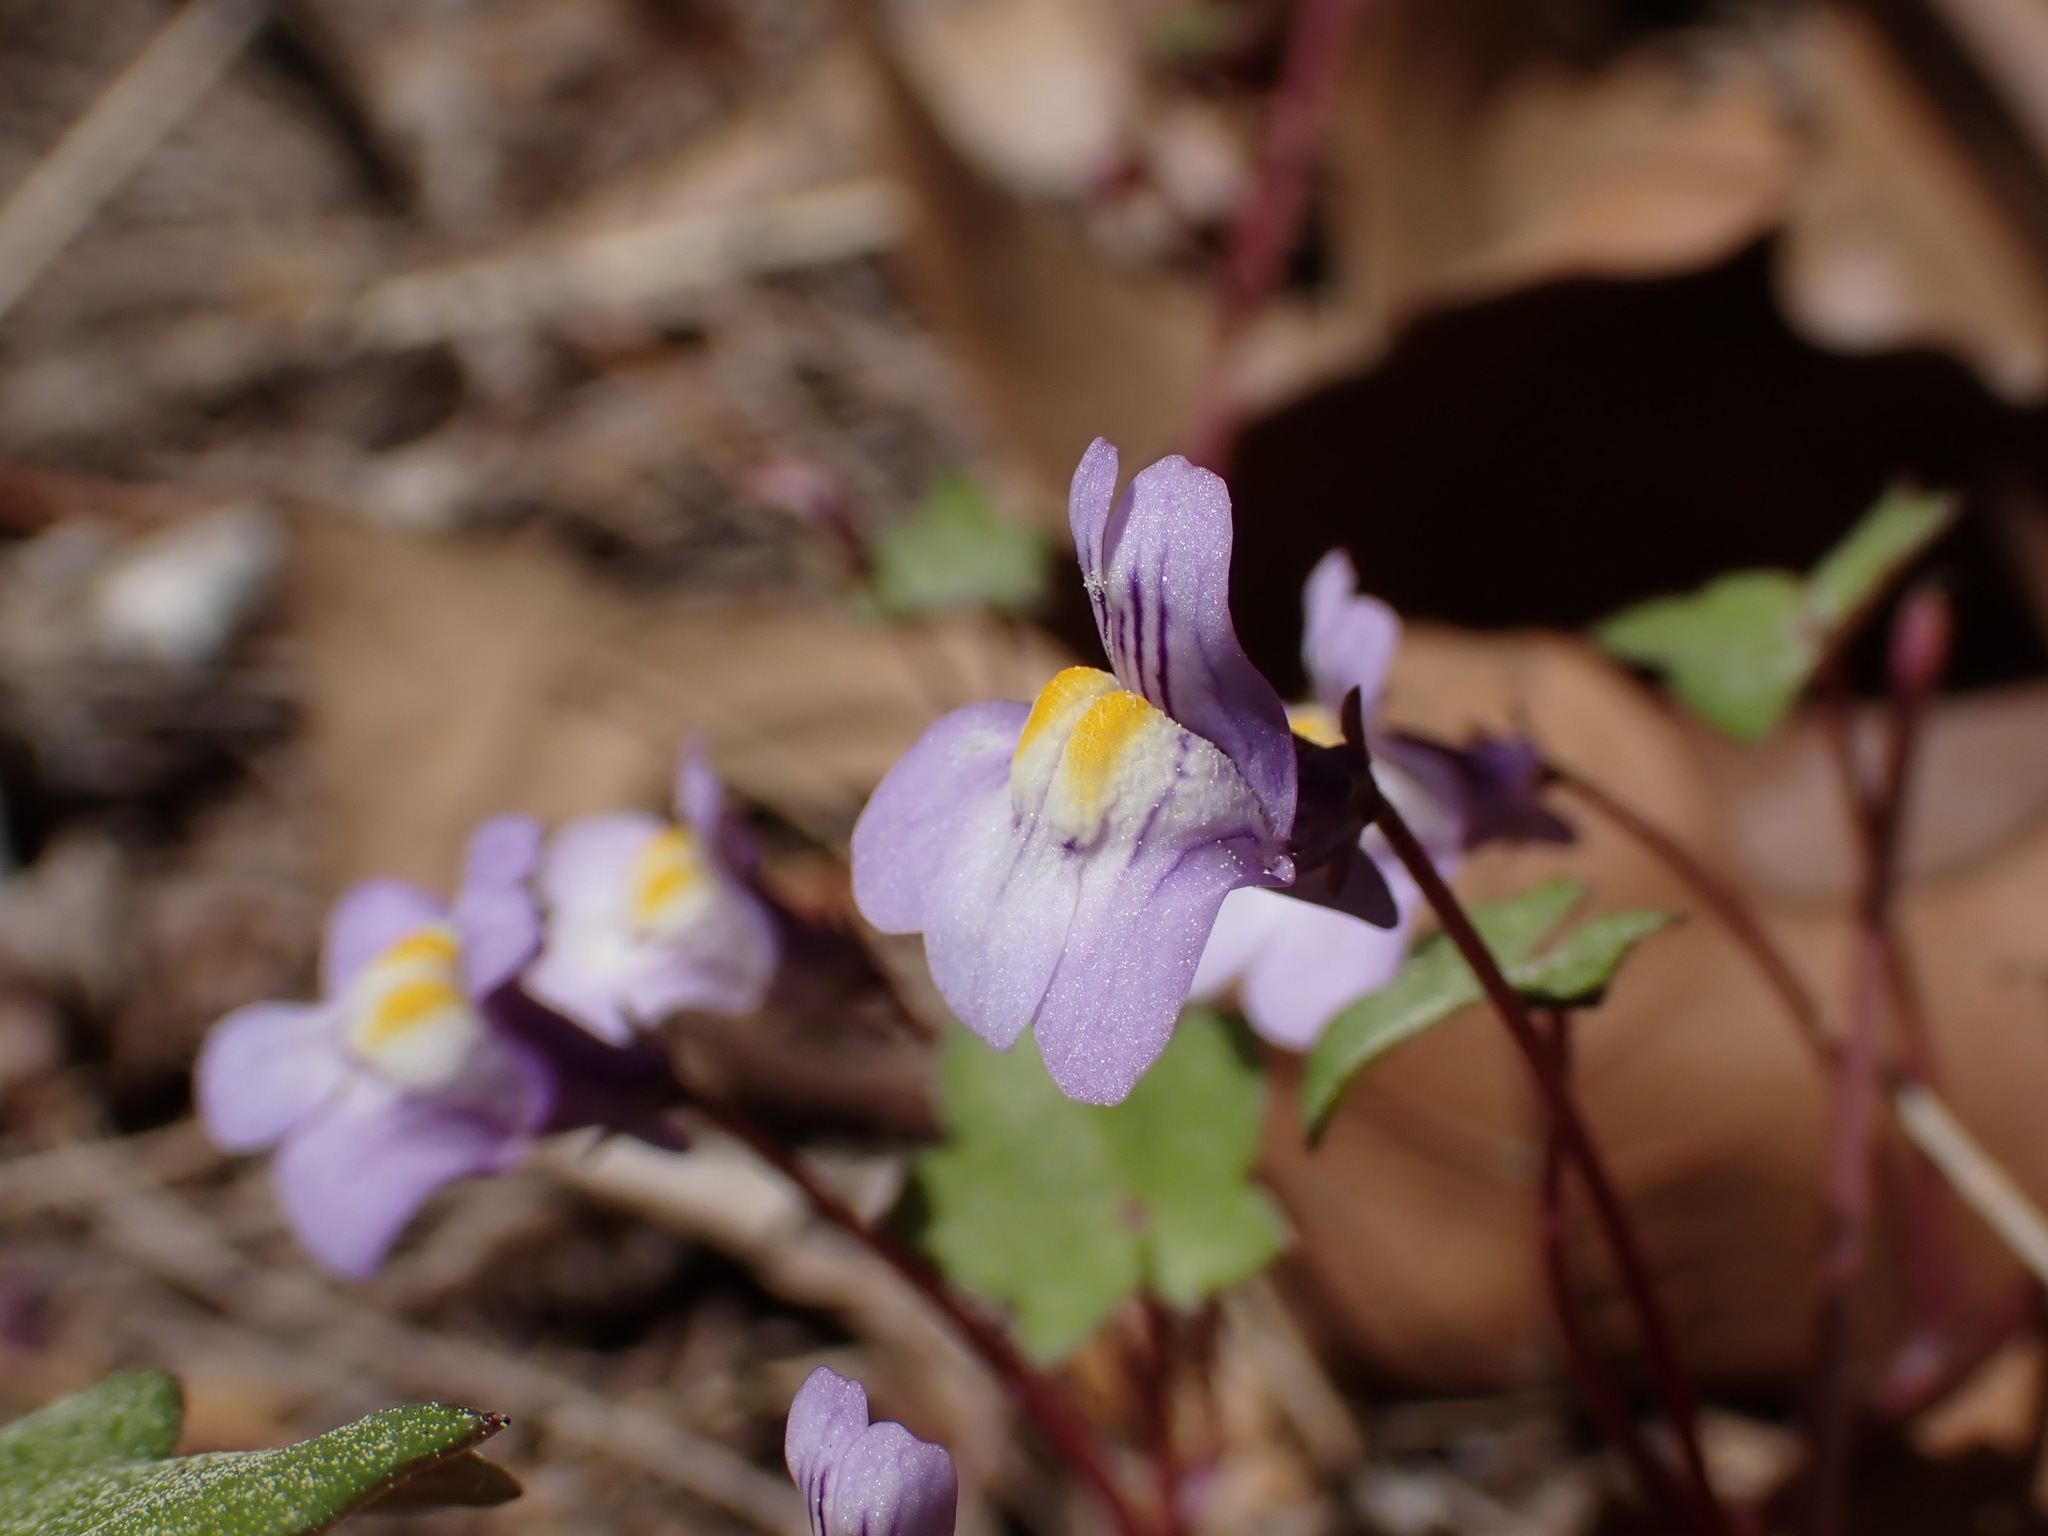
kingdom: Plantae
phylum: Tracheophyta
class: Magnoliopsida
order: Lamiales
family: Plantaginaceae
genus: Cymbalaria
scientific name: Cymbalaria muralis
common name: Ivy-leaved toadflax
